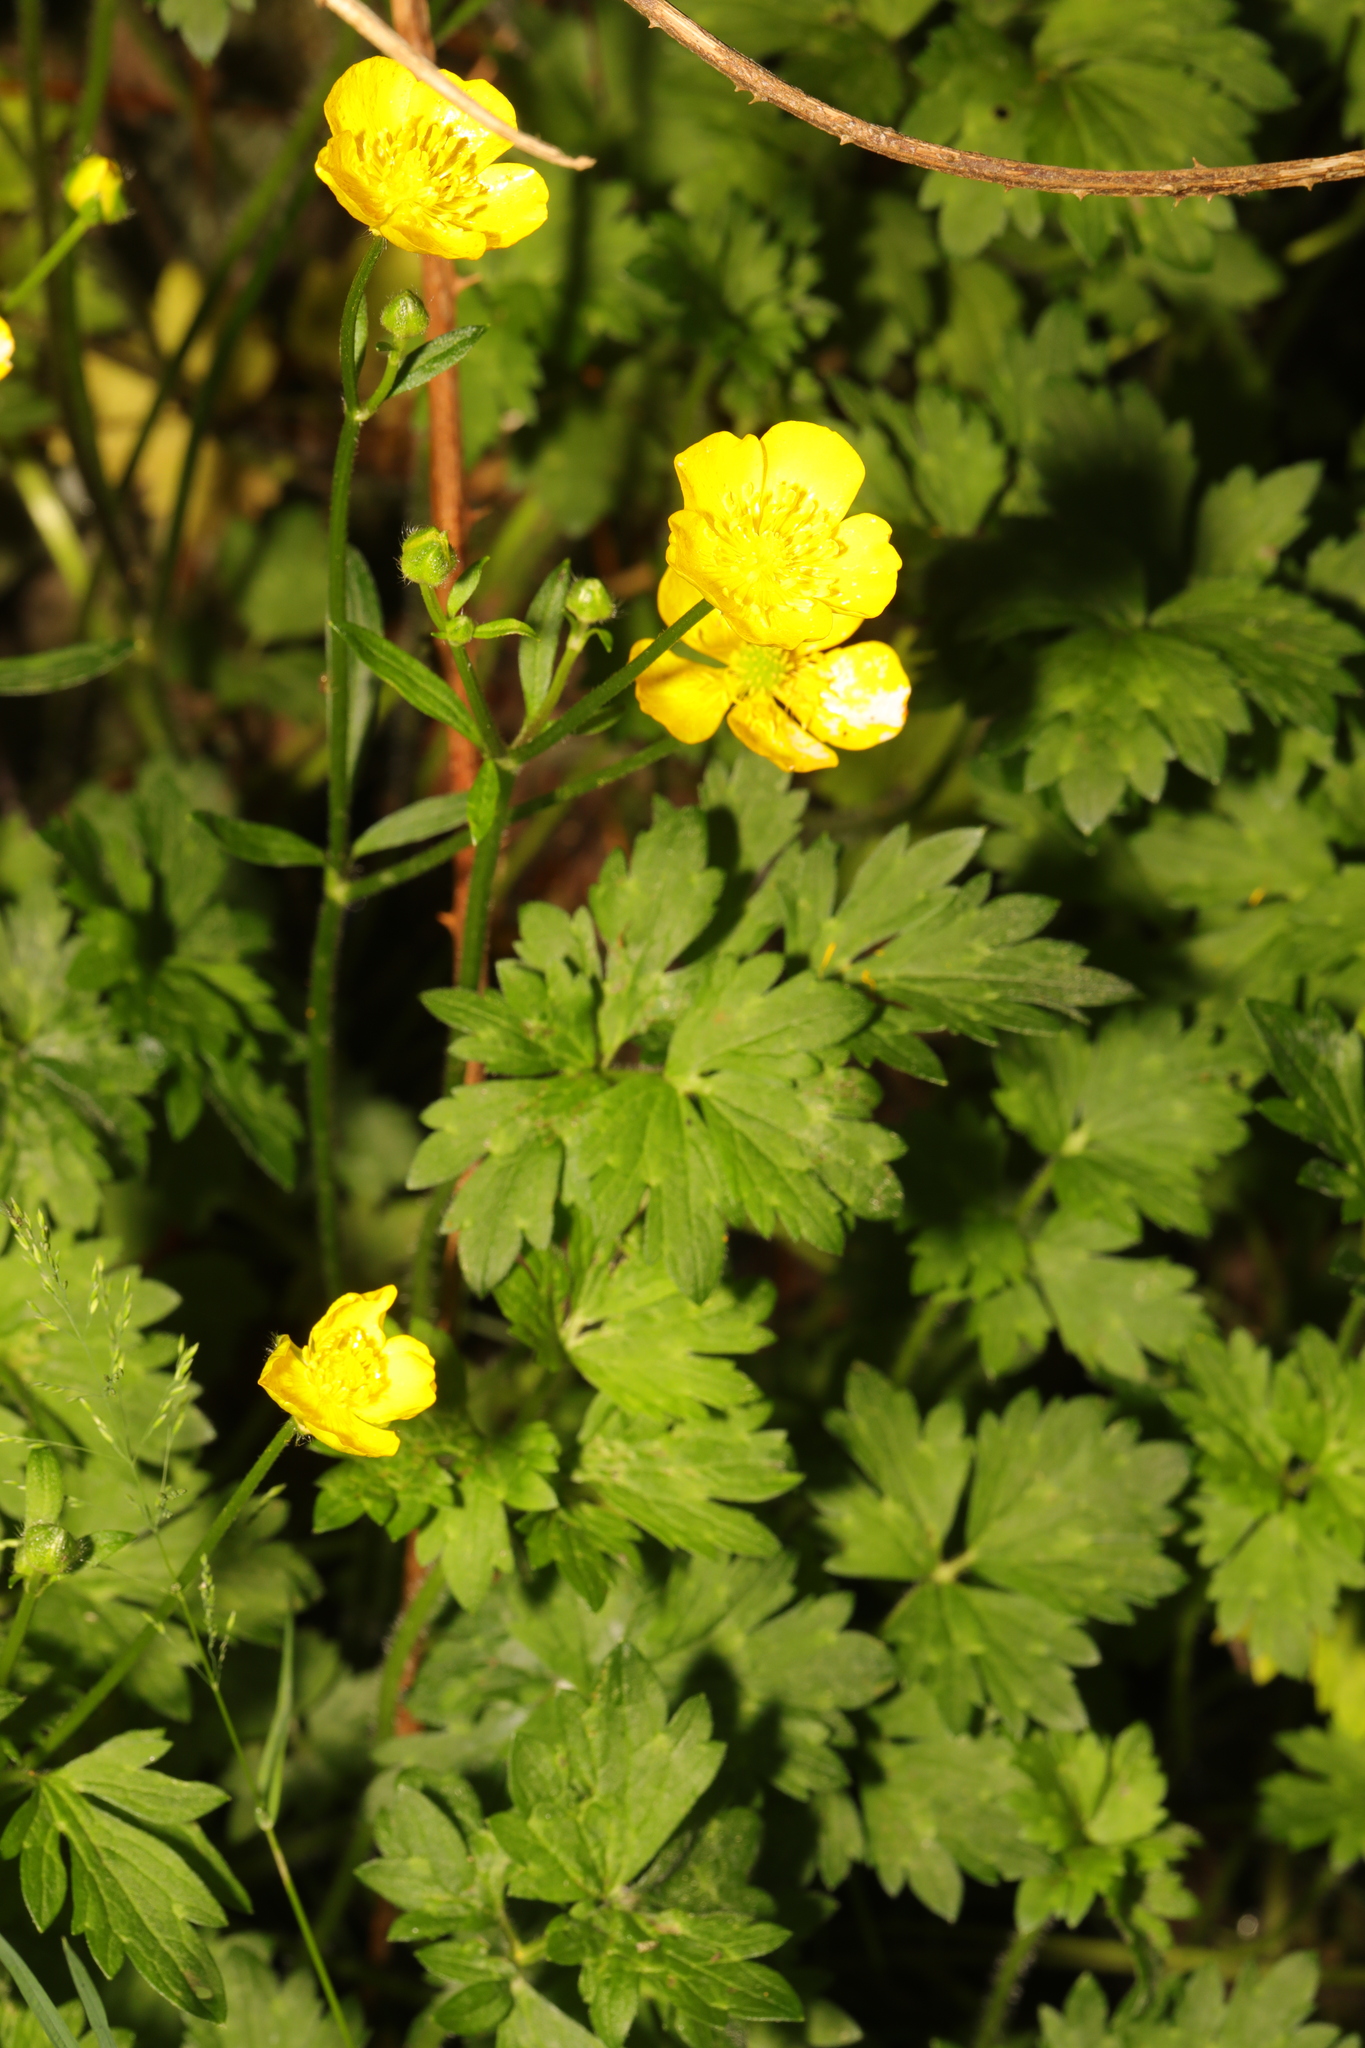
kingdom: Plantae
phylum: Tracheophyta
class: Magnoliopsida
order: Ranunculales
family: Ranunculaceae
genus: Ranunculus
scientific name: Ranunculus repens
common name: Creeping buttercup
